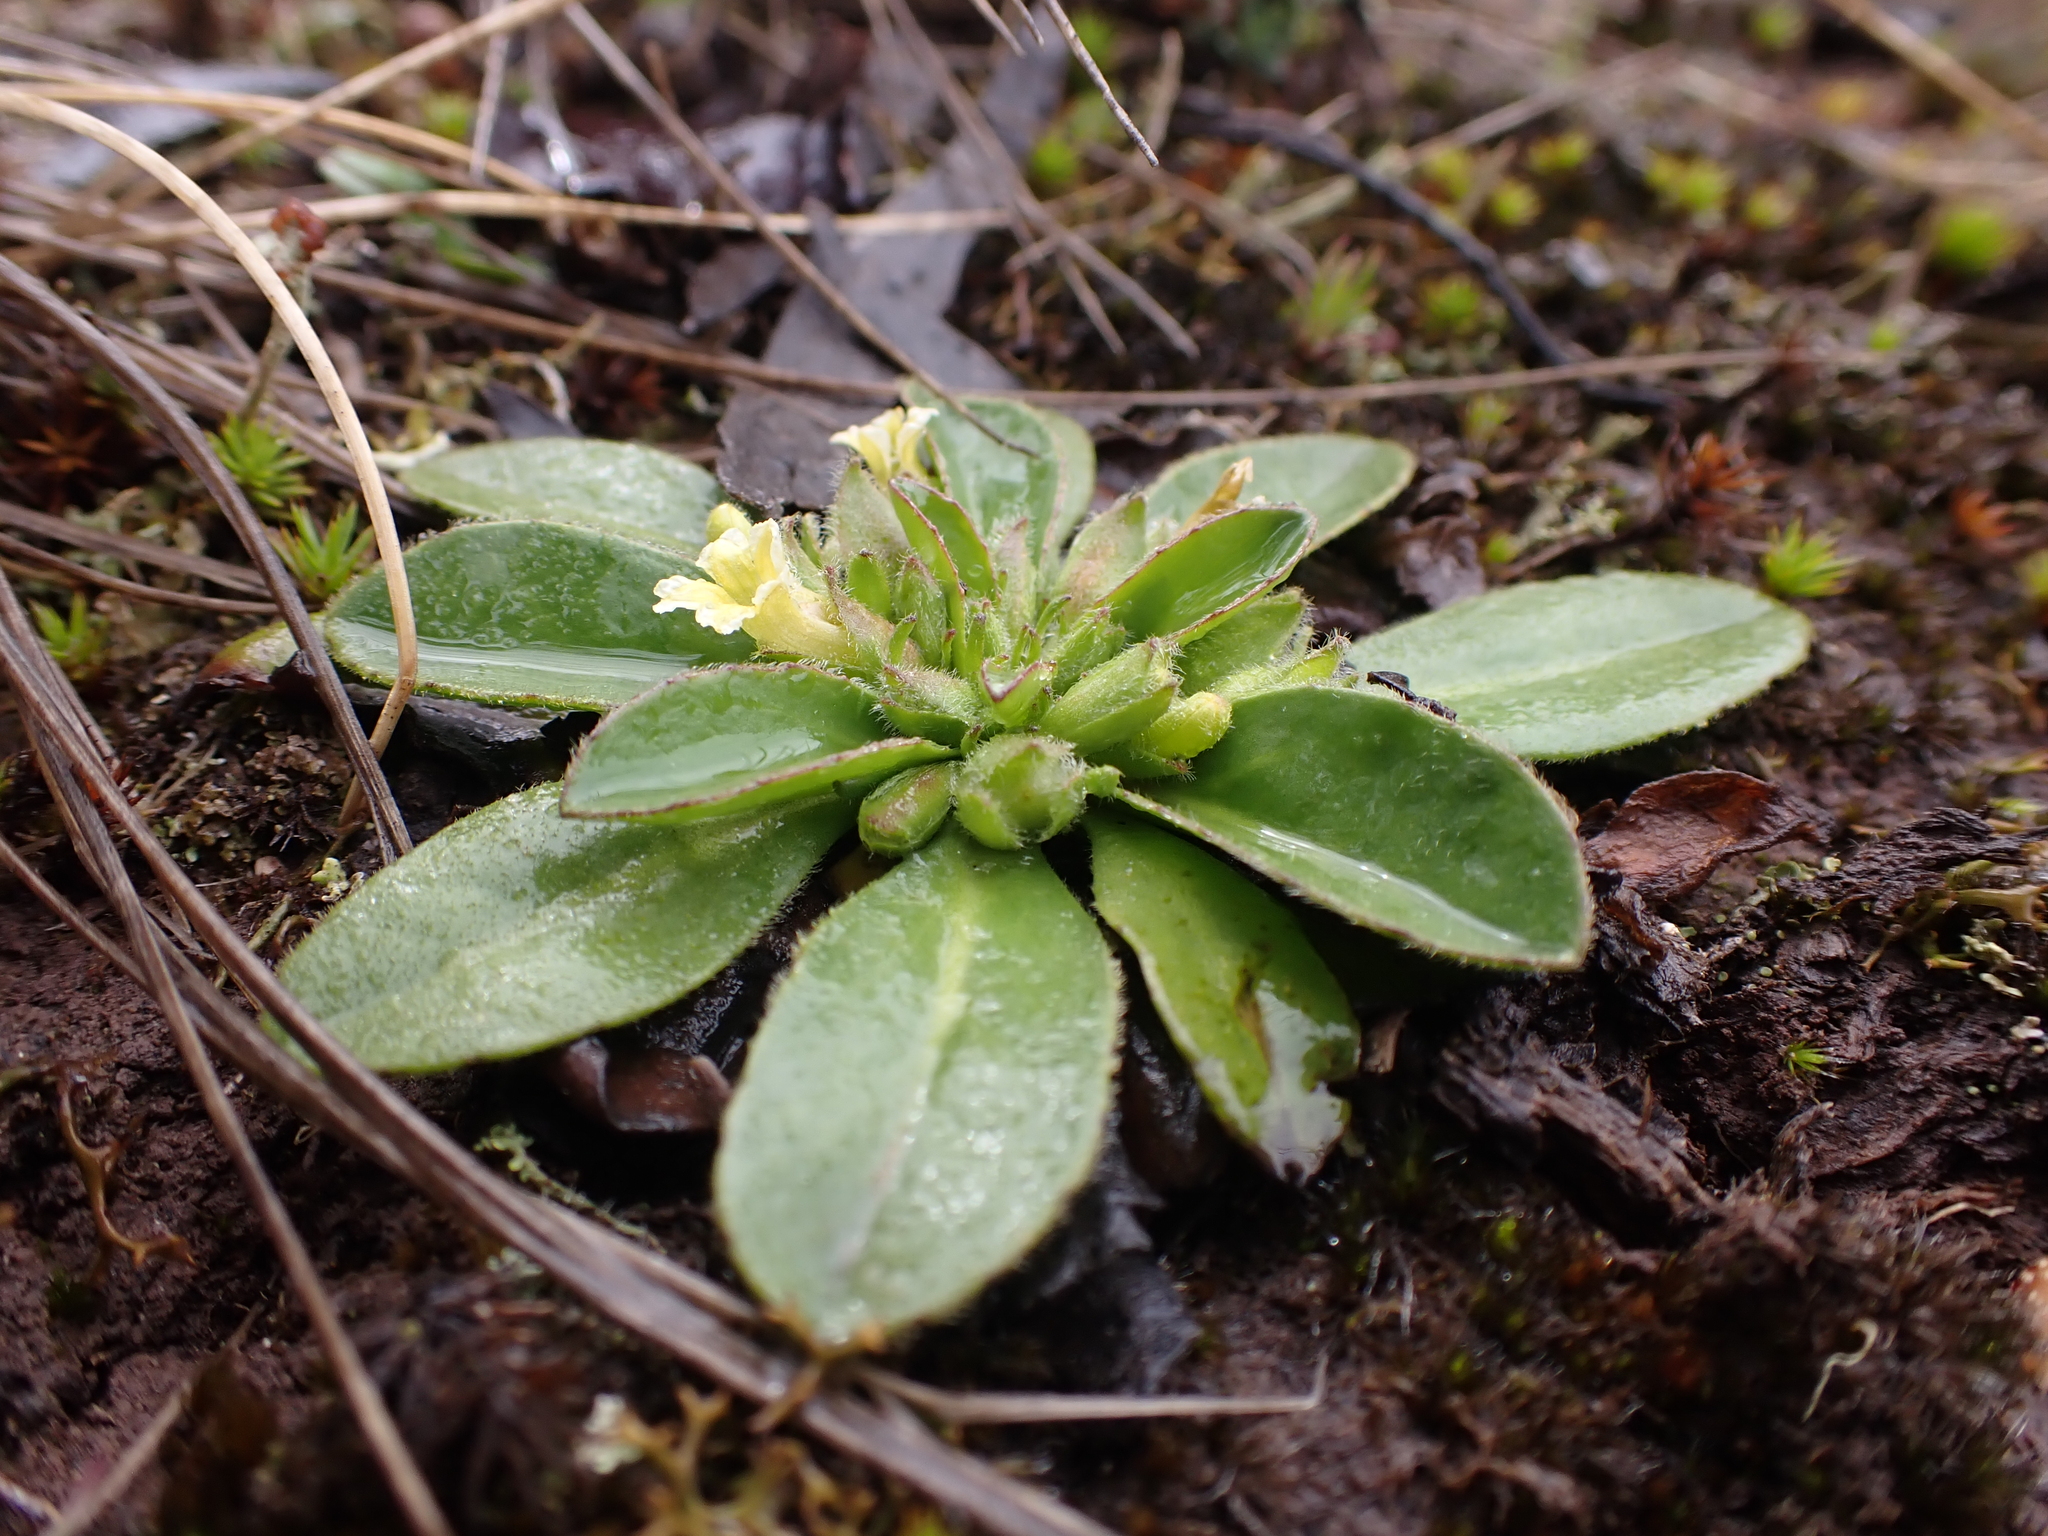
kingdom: Plantae
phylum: Tracheophyta
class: Magnoliopsida
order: Asterales
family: Goodeniaceae
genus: Goodenia
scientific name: Goodenia montana
